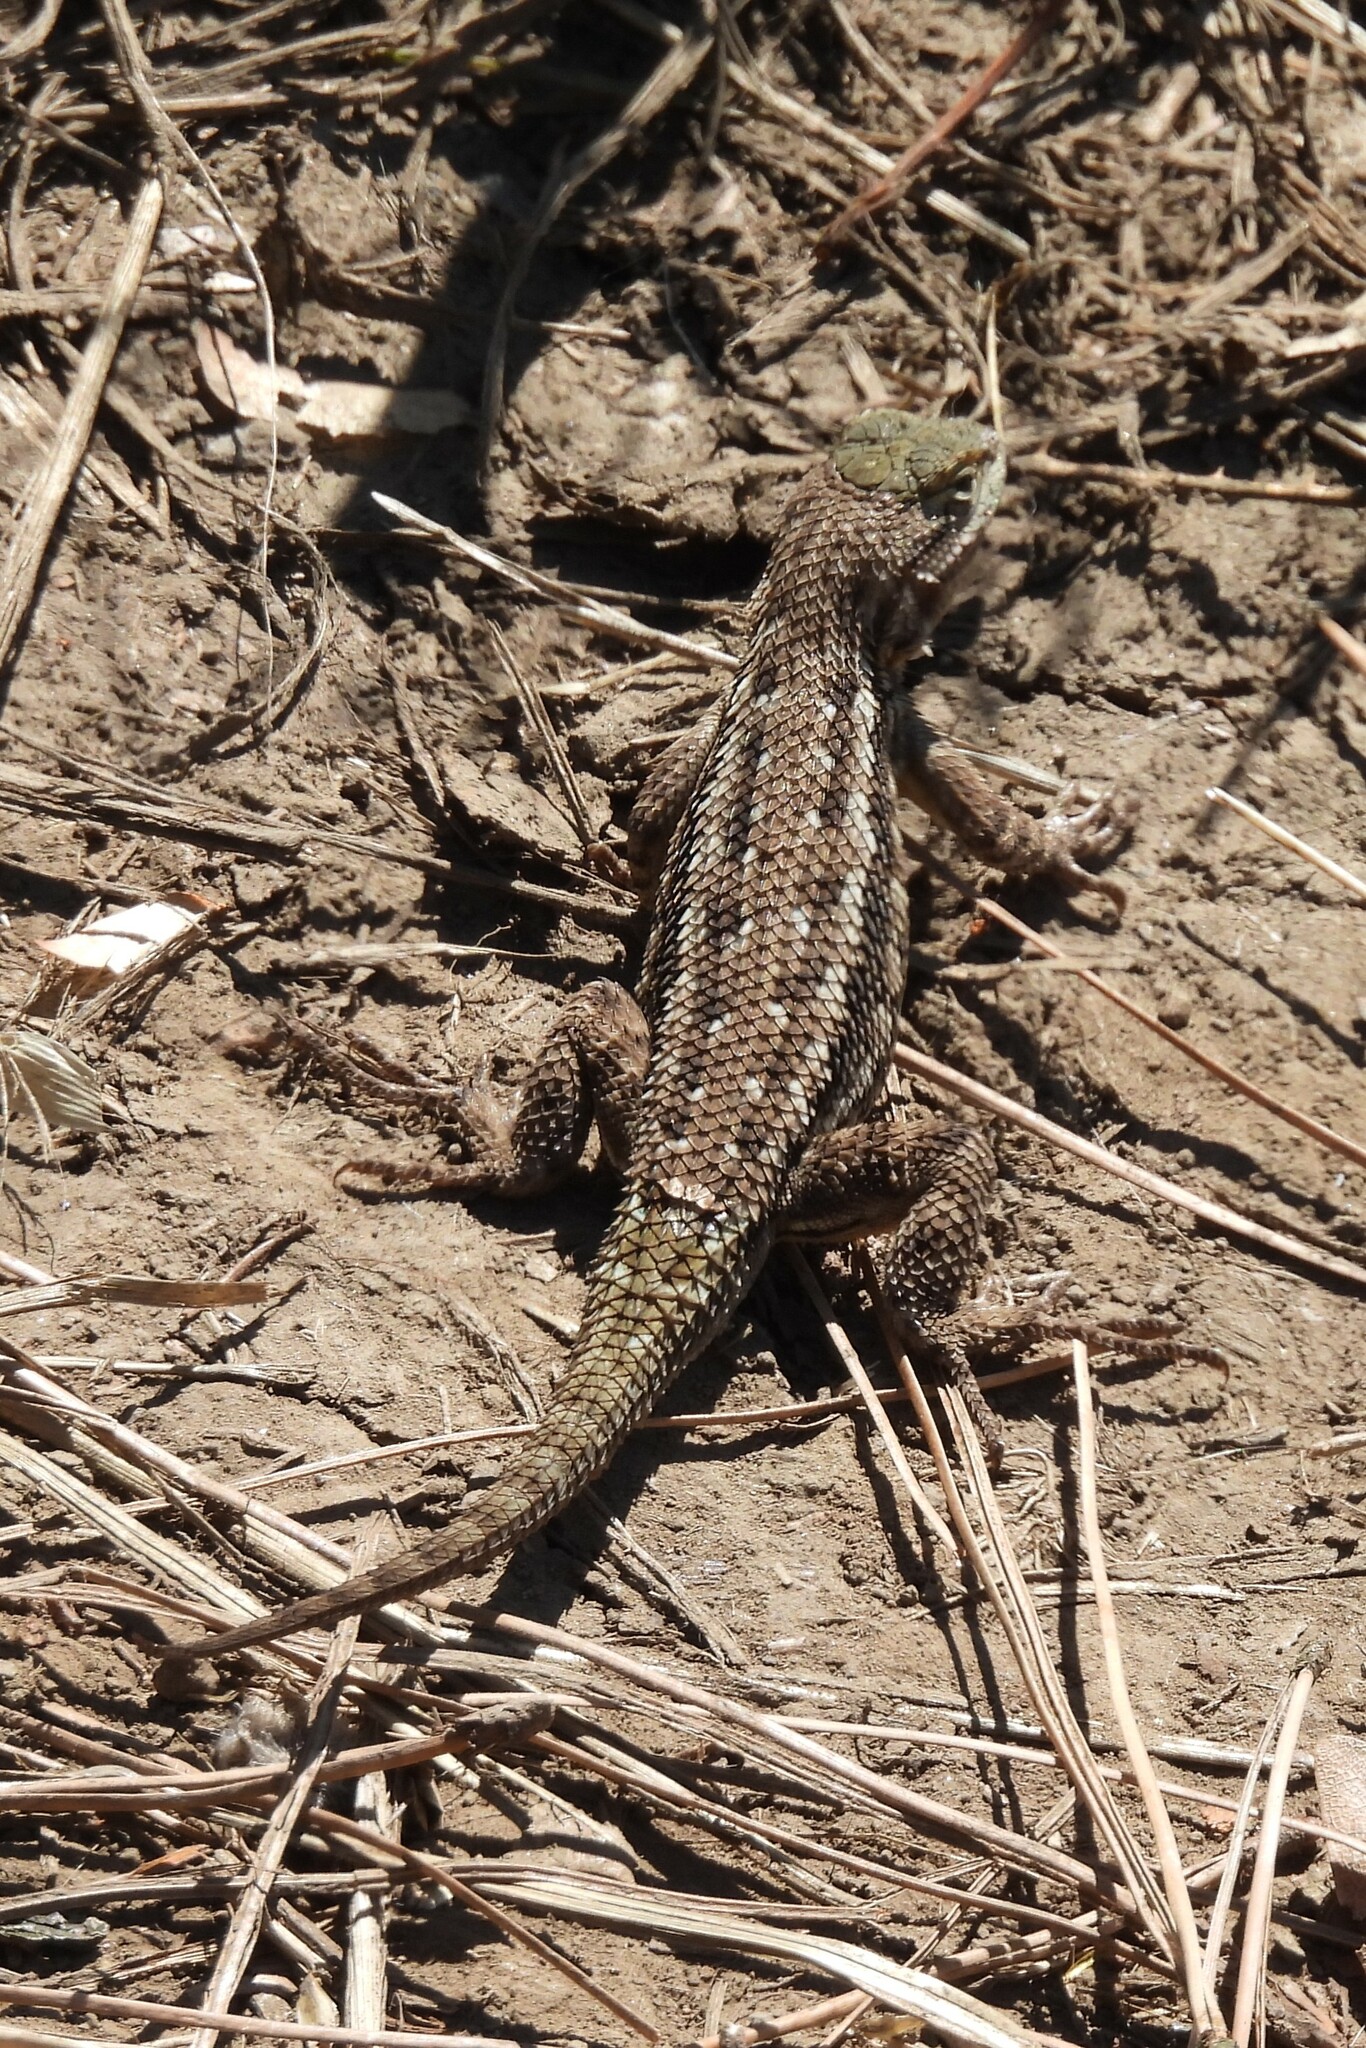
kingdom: Animalia
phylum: Chordata
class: Squamata
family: Phrynosomatidae
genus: Sceloporus
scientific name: Sceloporus occidentalis
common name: Western fence lizard
